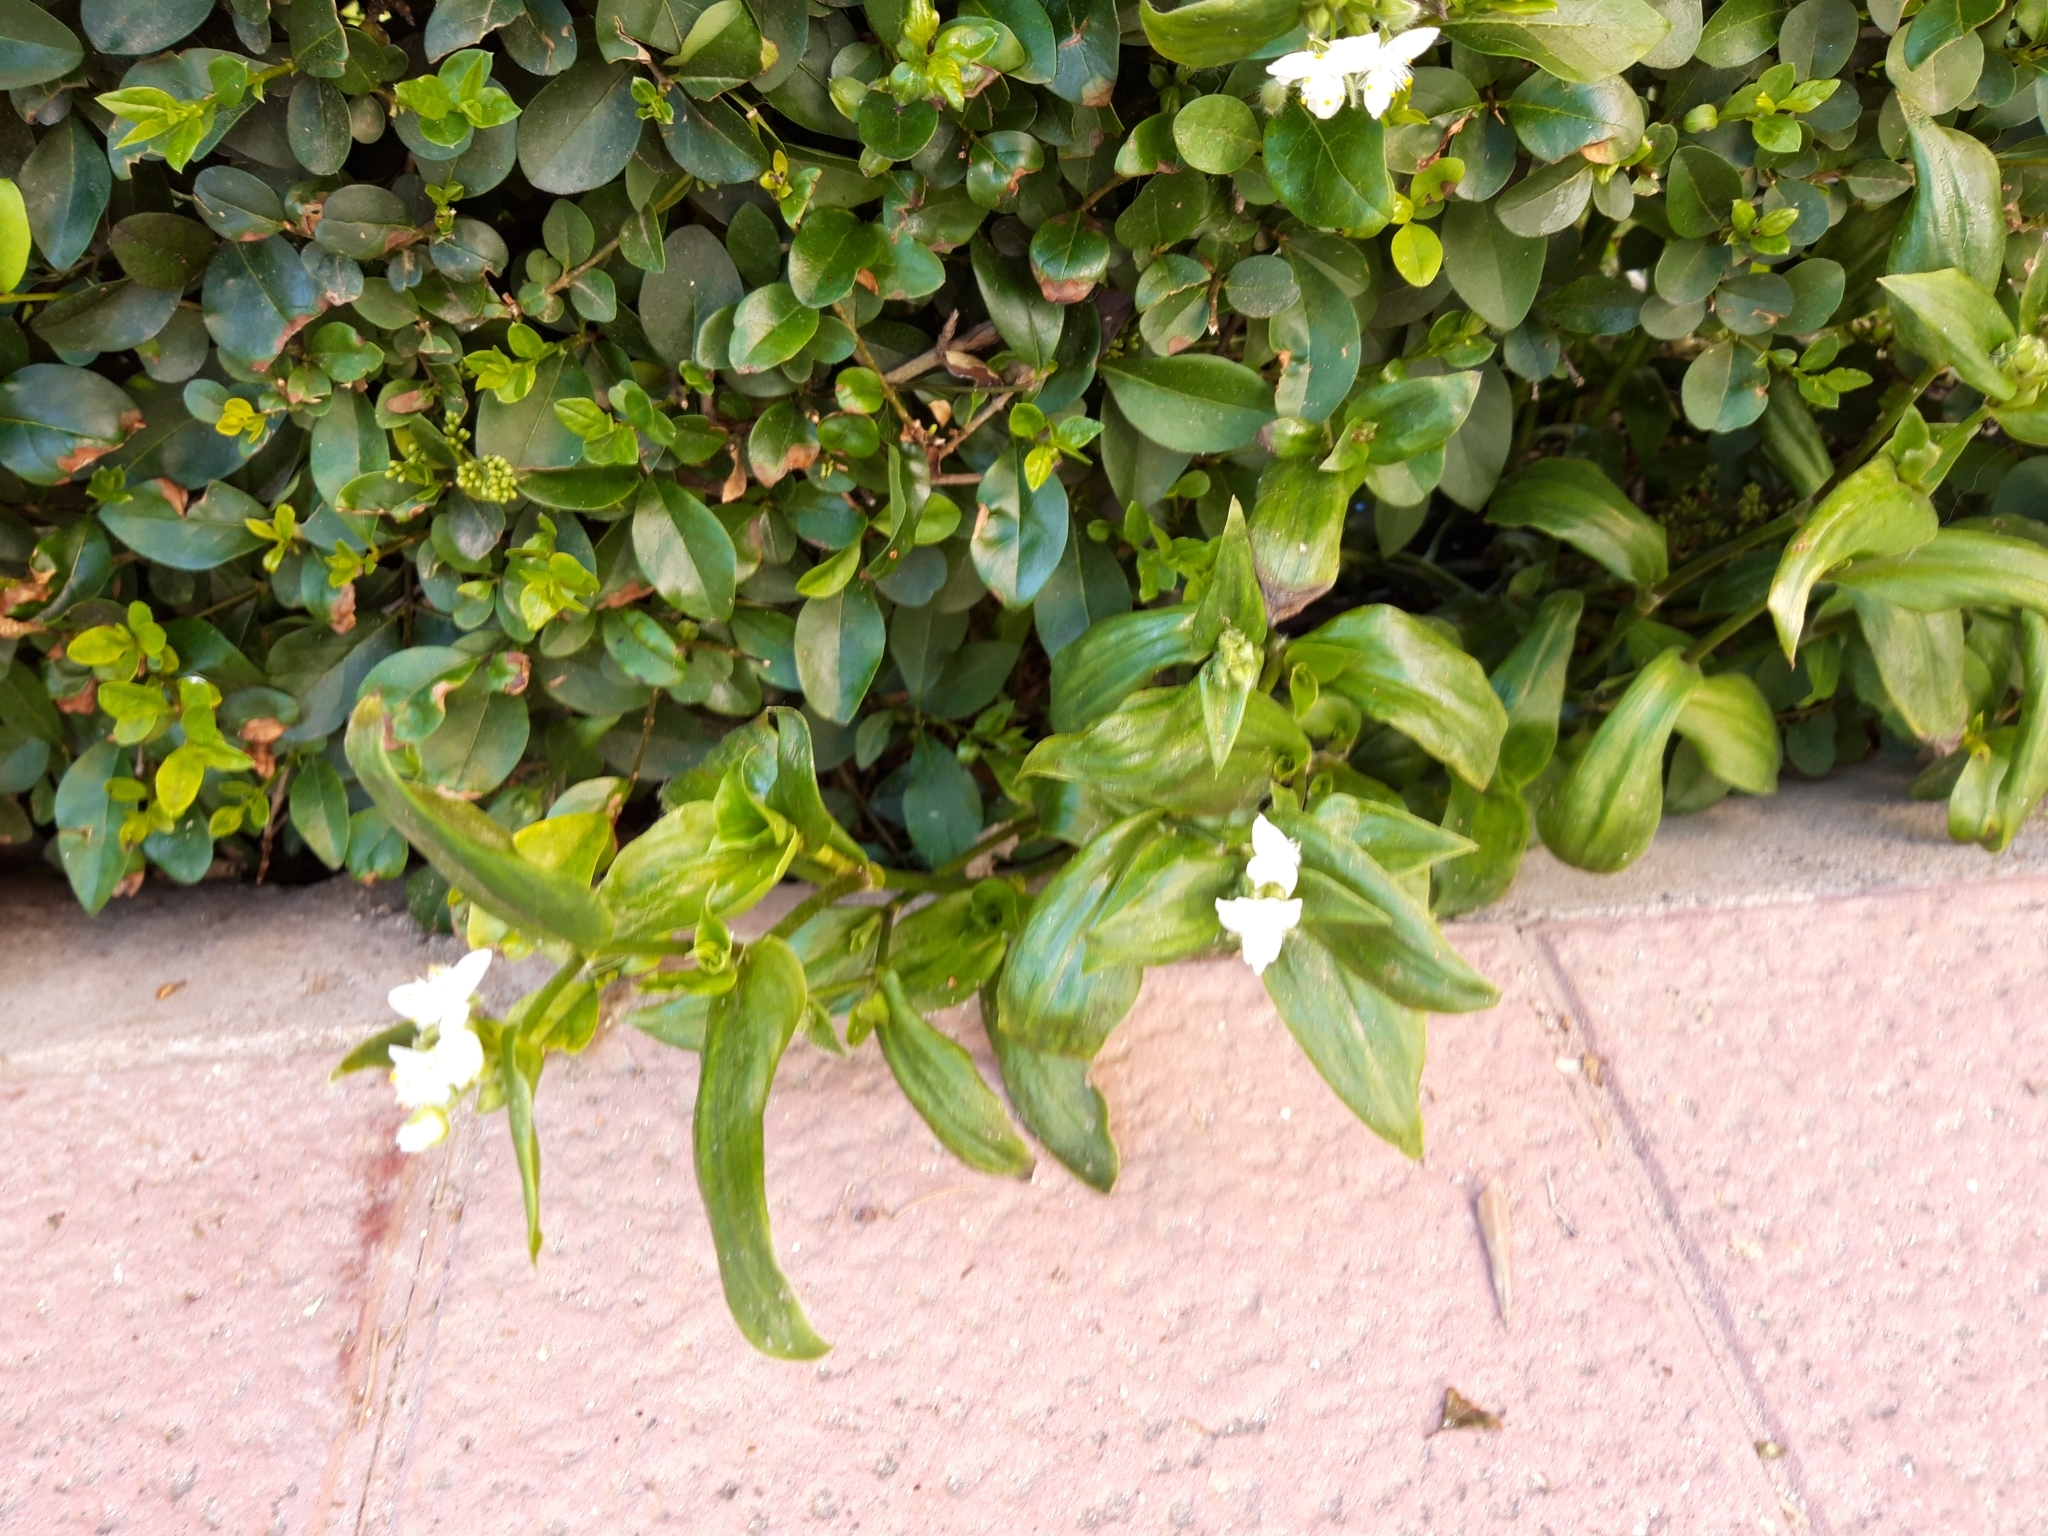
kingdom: Plantae
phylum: Tracheophyta
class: Liliopsida
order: Commelinales
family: Commelinaceae
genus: Tradescantia
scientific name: Tradescantia fluminensis
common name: Wandering-jew
